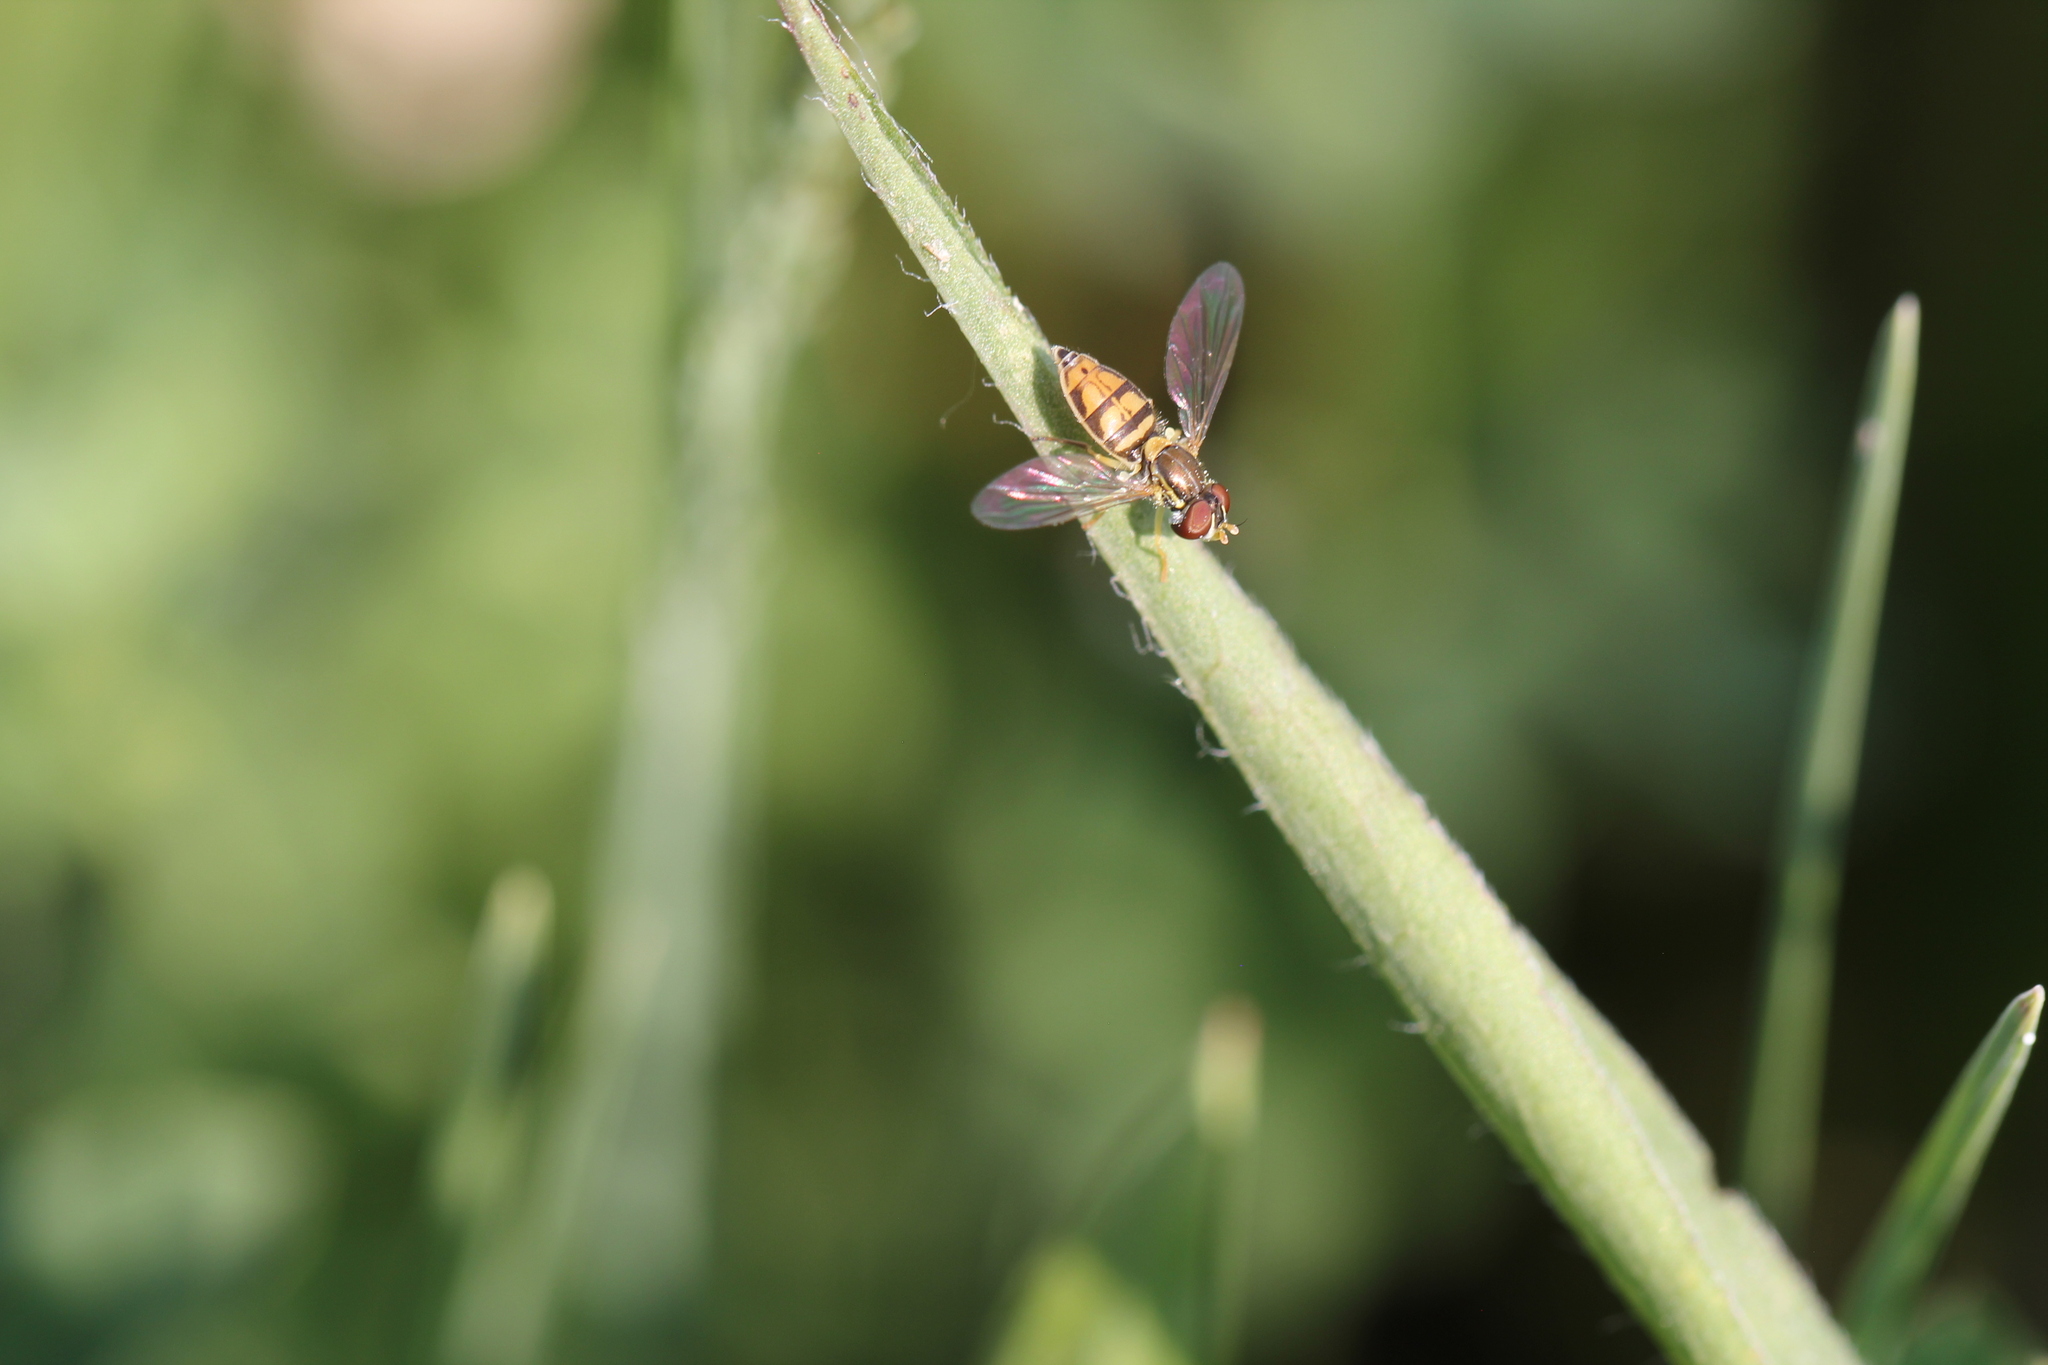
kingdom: Animalia
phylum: Arthropoda
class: Insecta
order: Diptera
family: Syrphidae
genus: Toxomerus
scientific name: Toxomerus marginatus
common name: Syrphid fly
